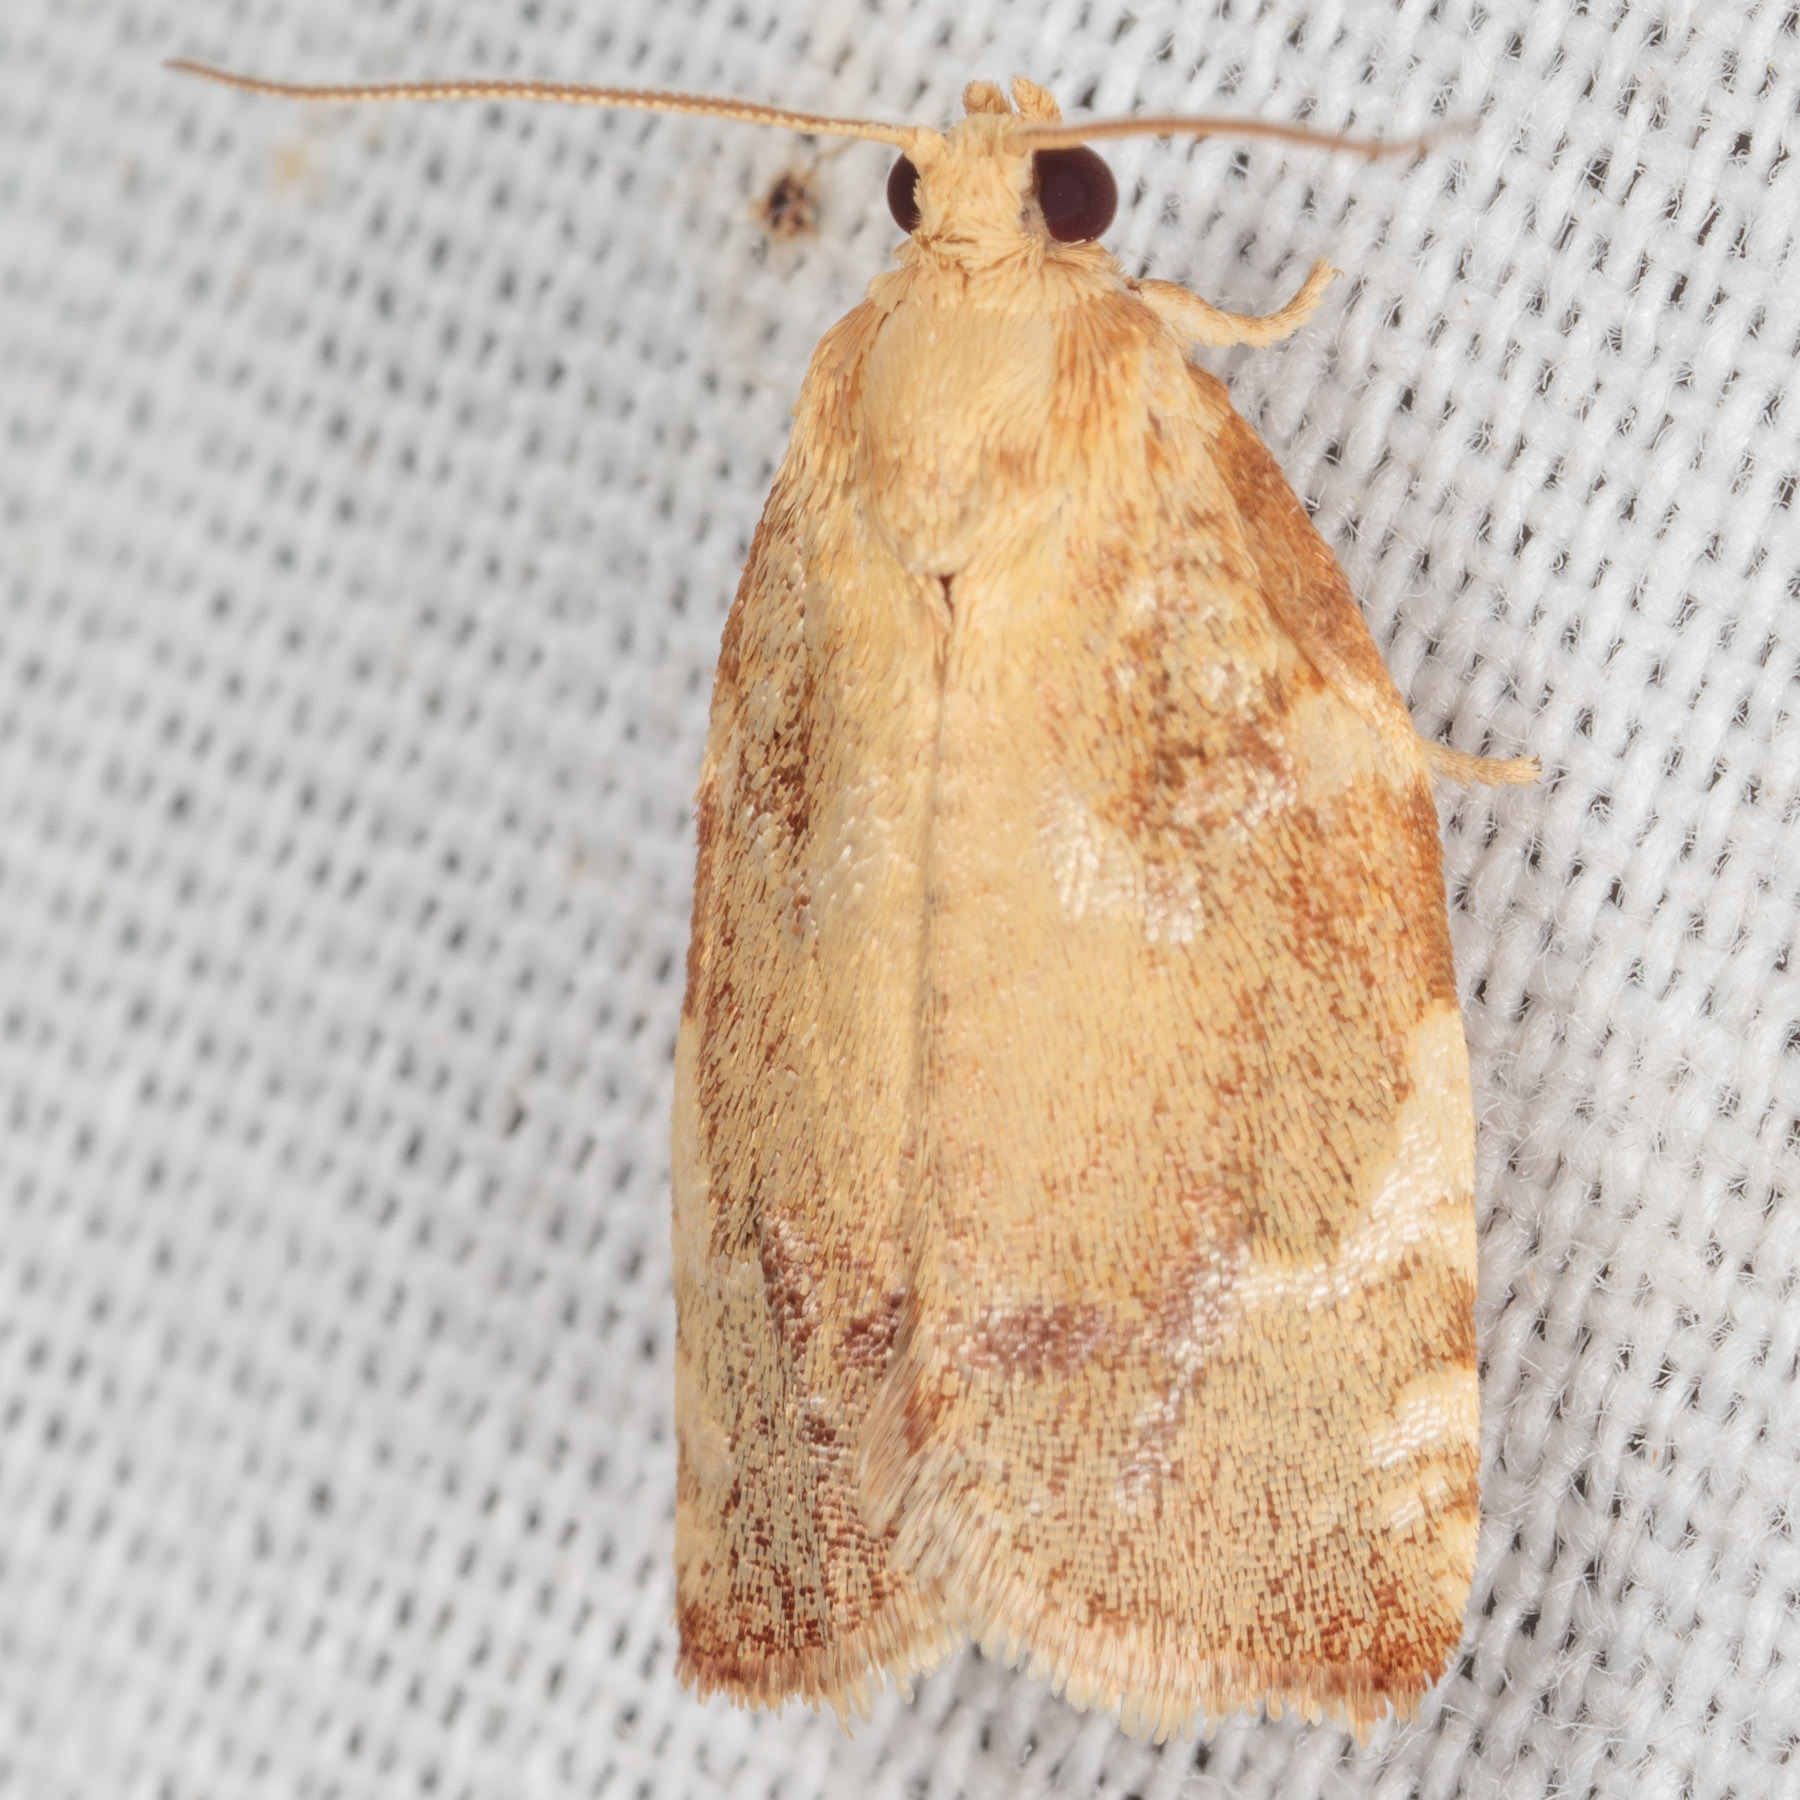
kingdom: Animalia
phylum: Arthropoda
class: Insecta
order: Lepidoptera
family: Tortricidae
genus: Archips
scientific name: Archips semiferanus
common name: Oak leafroller
